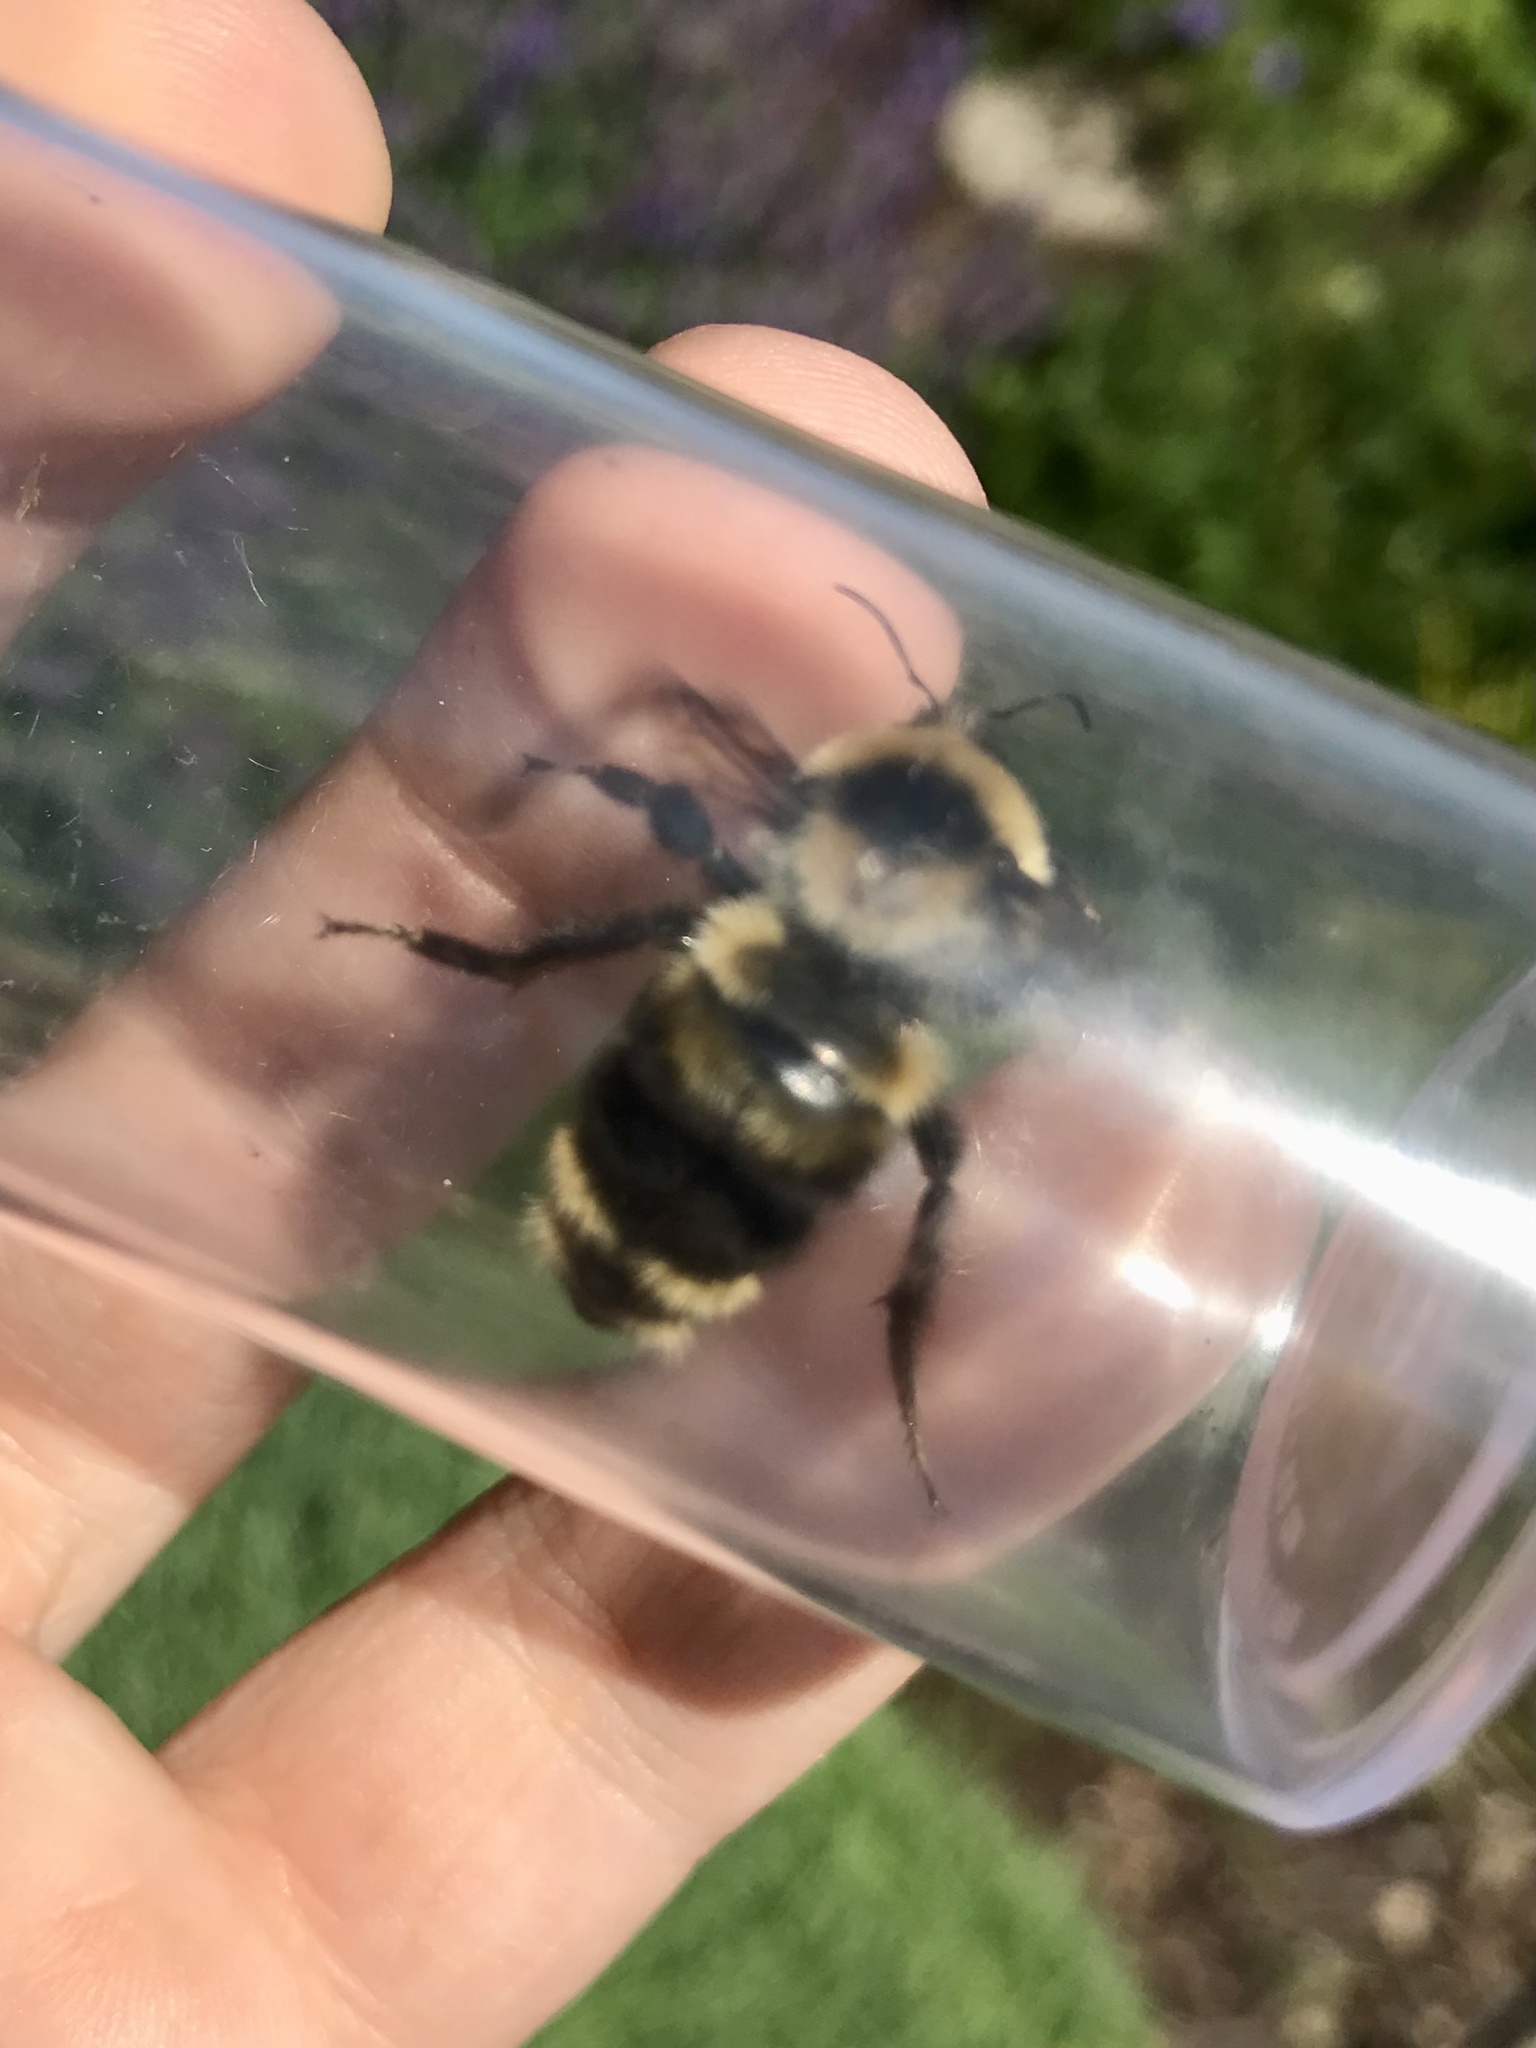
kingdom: Animalia
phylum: Arthropoda
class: Insecta
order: Hymenoptera
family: Apidae
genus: Bombus
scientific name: Bombus rufocinctus
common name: Red-belted bumble bee
